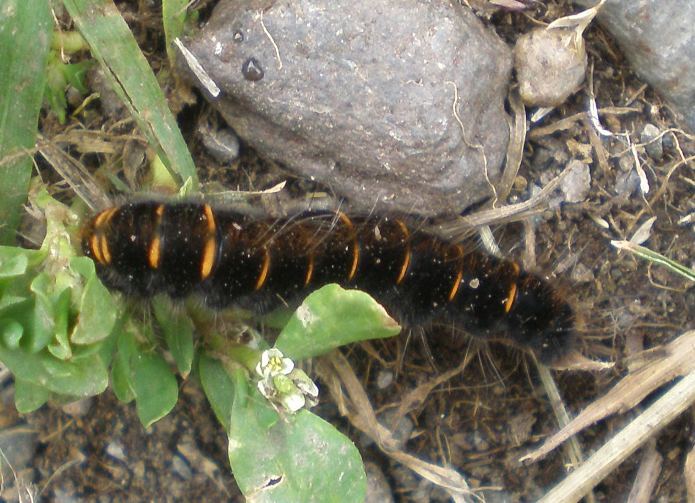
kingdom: Animalia
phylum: Arthropoda
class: Insecta
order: Lepidoptera
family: Lasiocampidae
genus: Macrothylacia
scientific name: Macrothylacia rubi
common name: Fox moth
